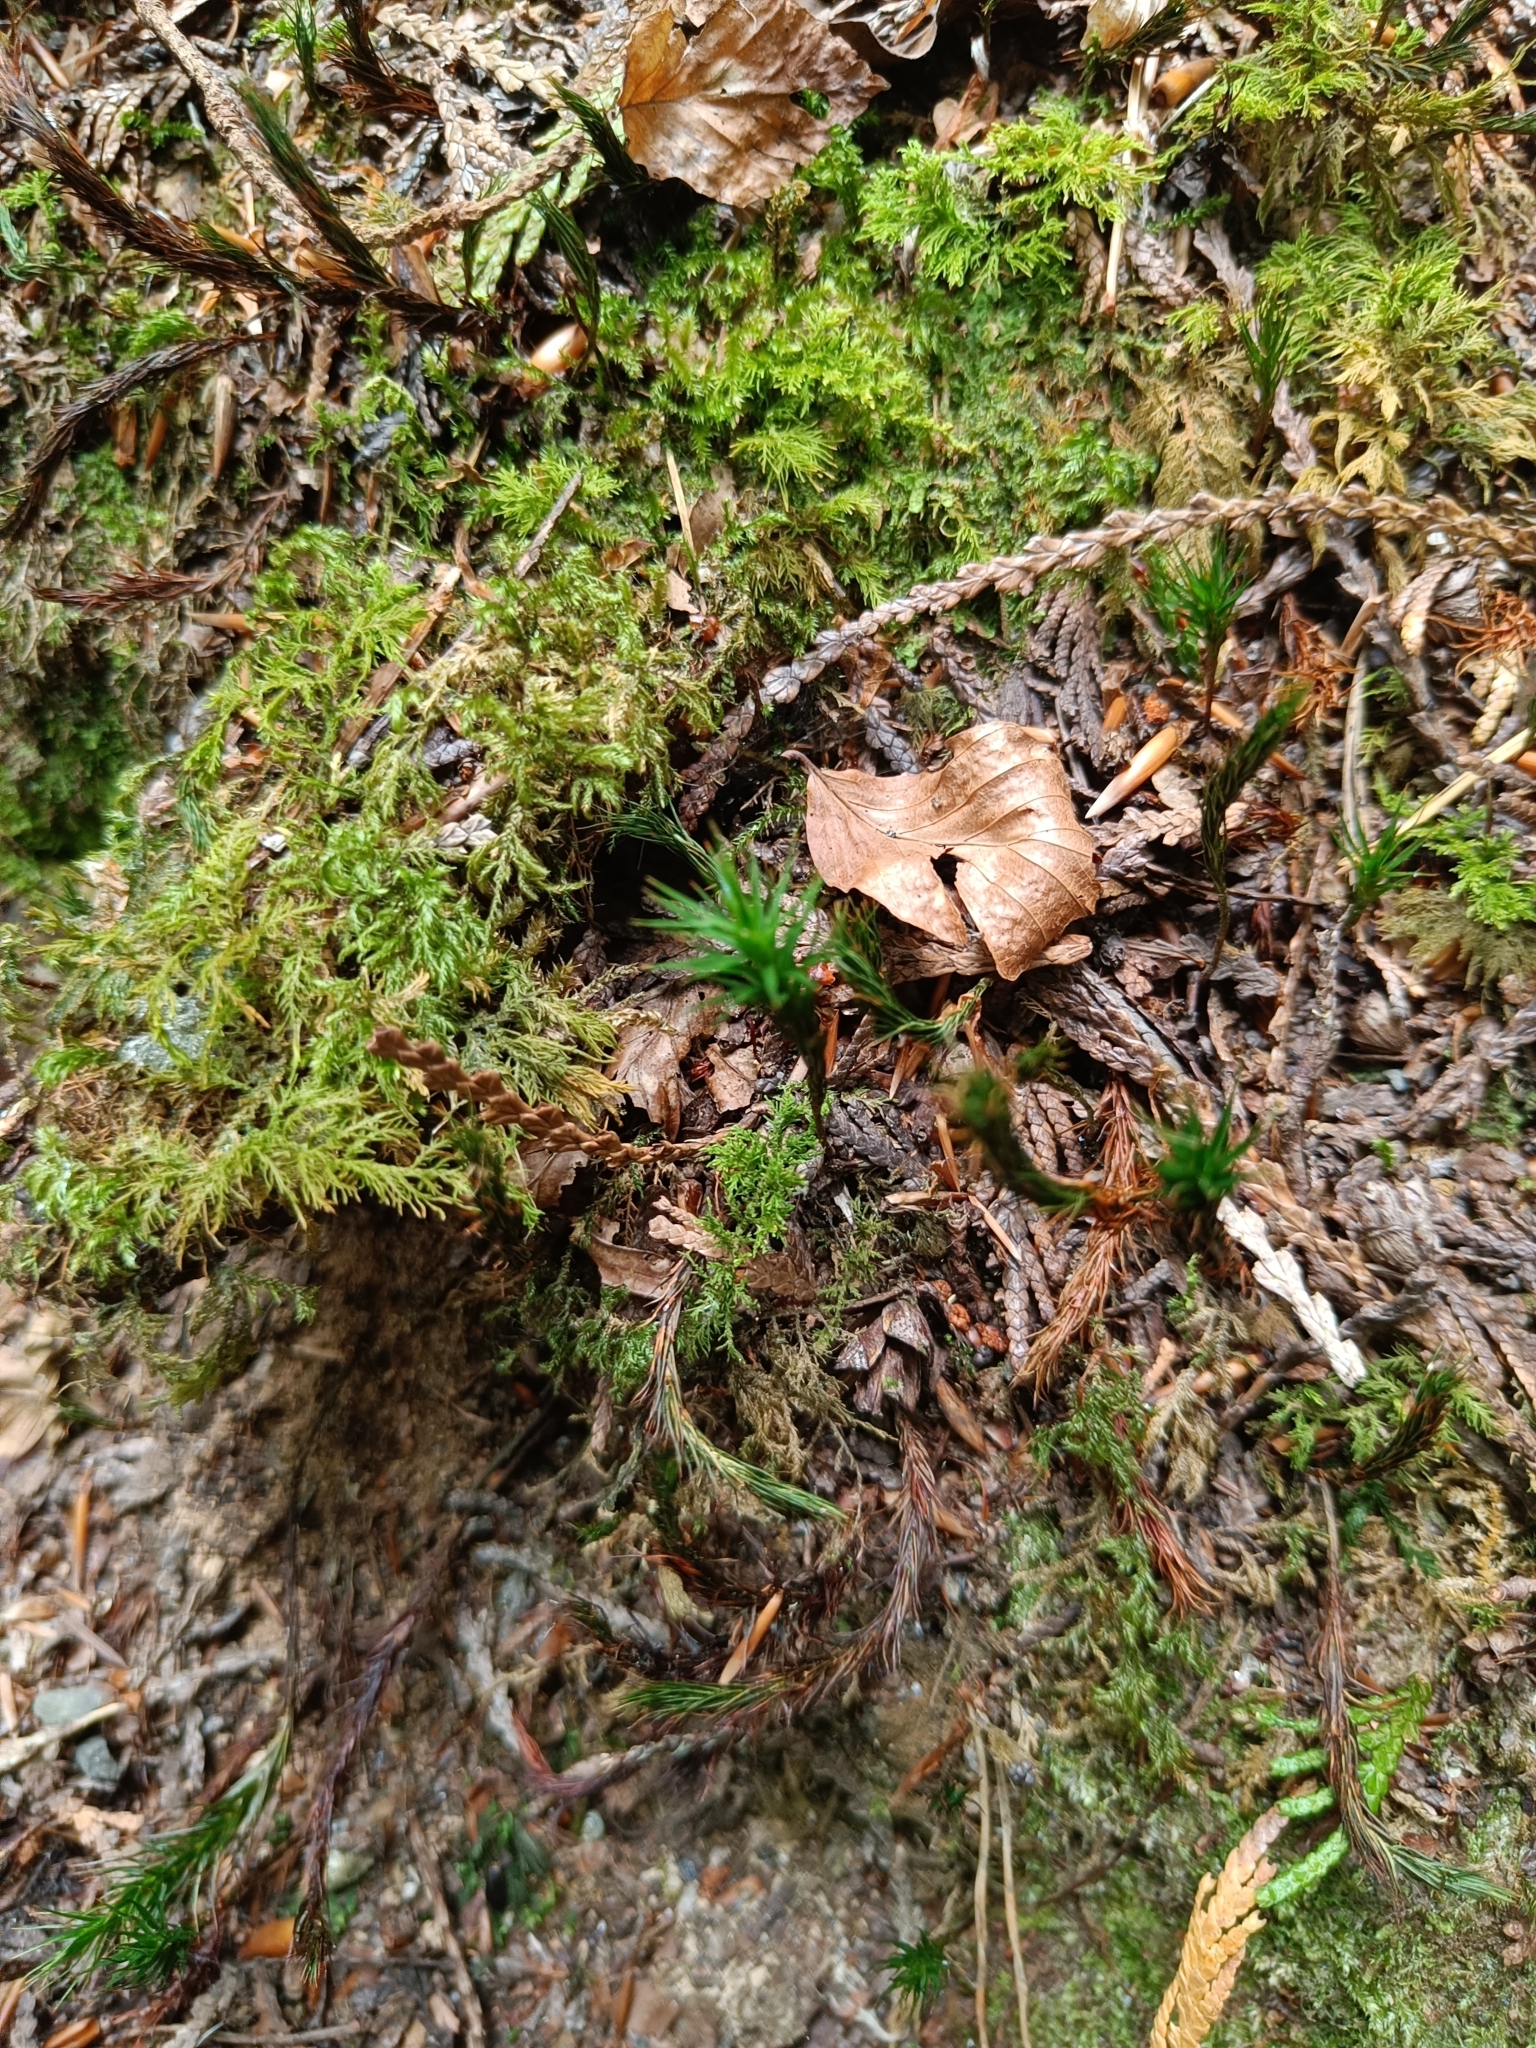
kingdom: Plantae
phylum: Bryophyta
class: Polytrichopsida
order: Polytrichales
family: Polytrichaceae
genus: Polytrichum
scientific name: Polytrichum formosum
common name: Bank haircap moss
